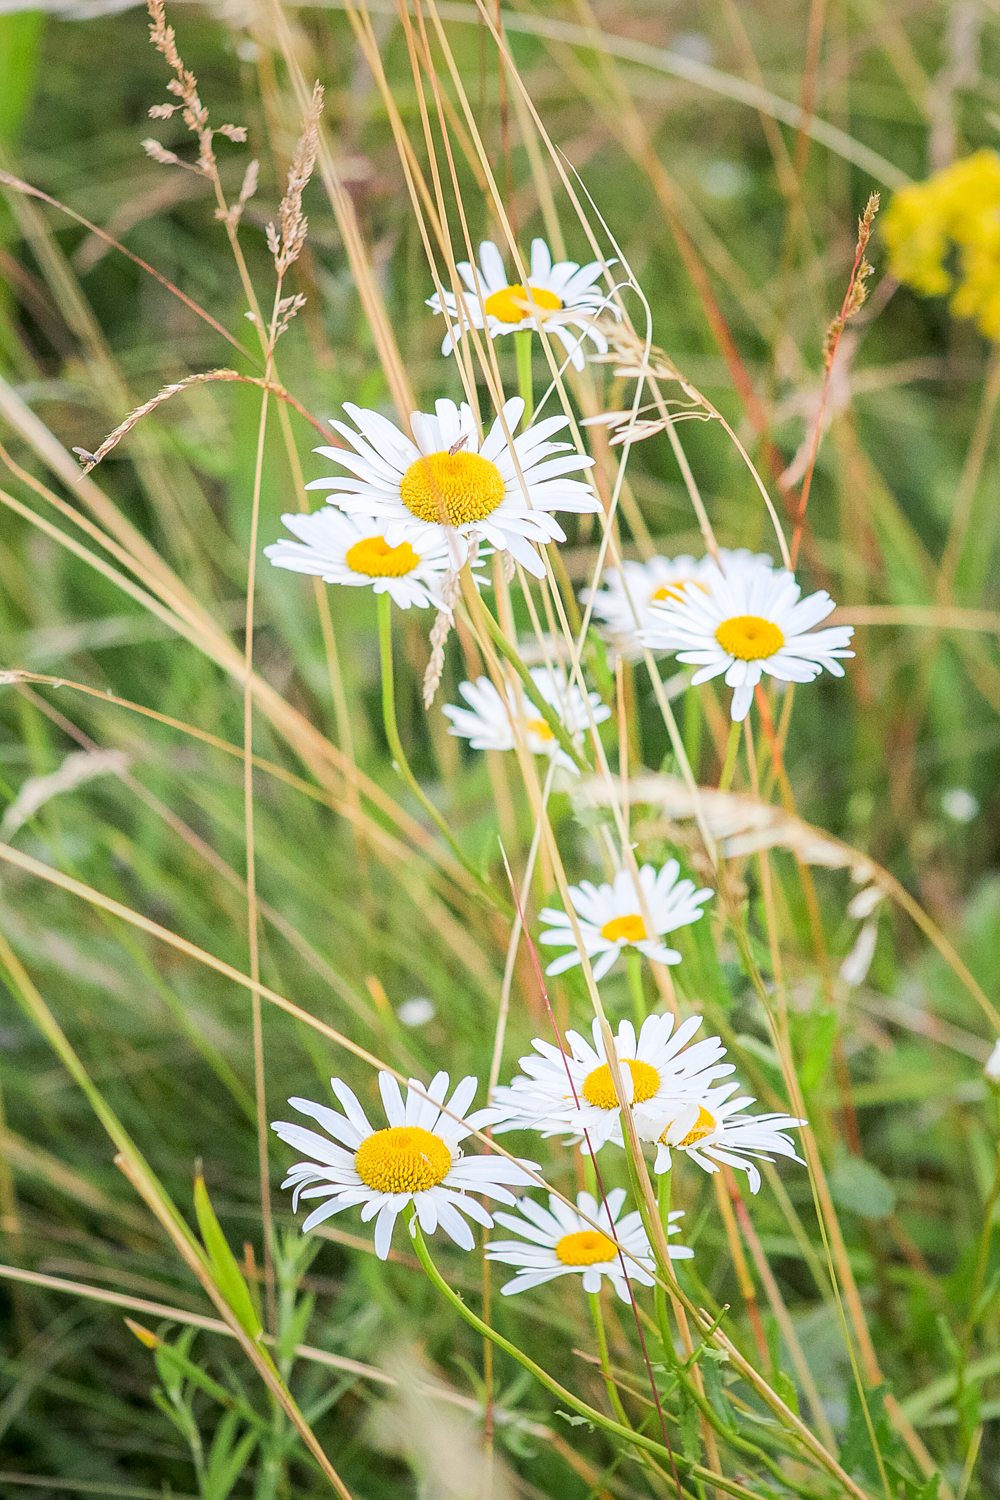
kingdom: Plantae
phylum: Tracheophyta
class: Magnoliopsida
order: Asterales
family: Asteraceae
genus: Leucanthemum
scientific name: Leucanthemum vulgare
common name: Oxeye daisy
